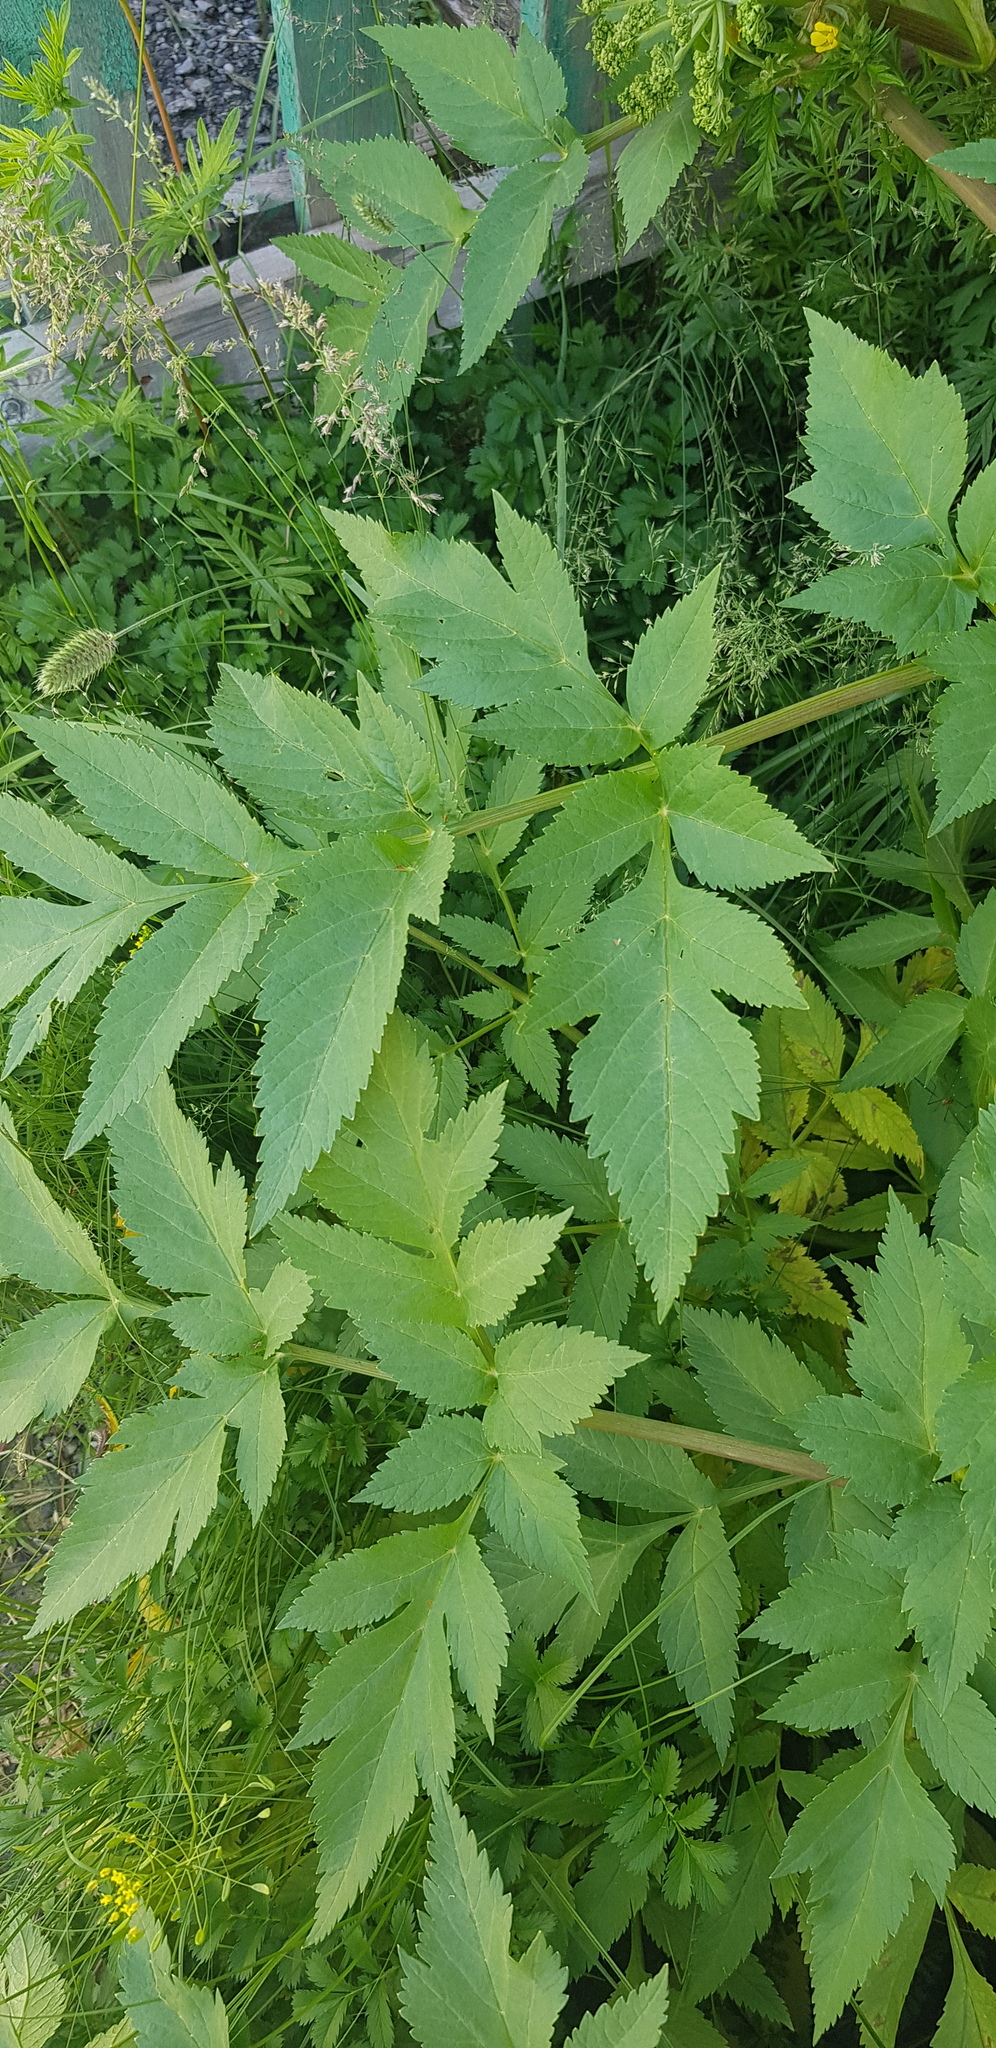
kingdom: Plantae
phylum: Tracheophyta
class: Magnoliopsida
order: Apiales
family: Apiaceae
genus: Angelica
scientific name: Angelica sylvestris
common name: Wild angelica
